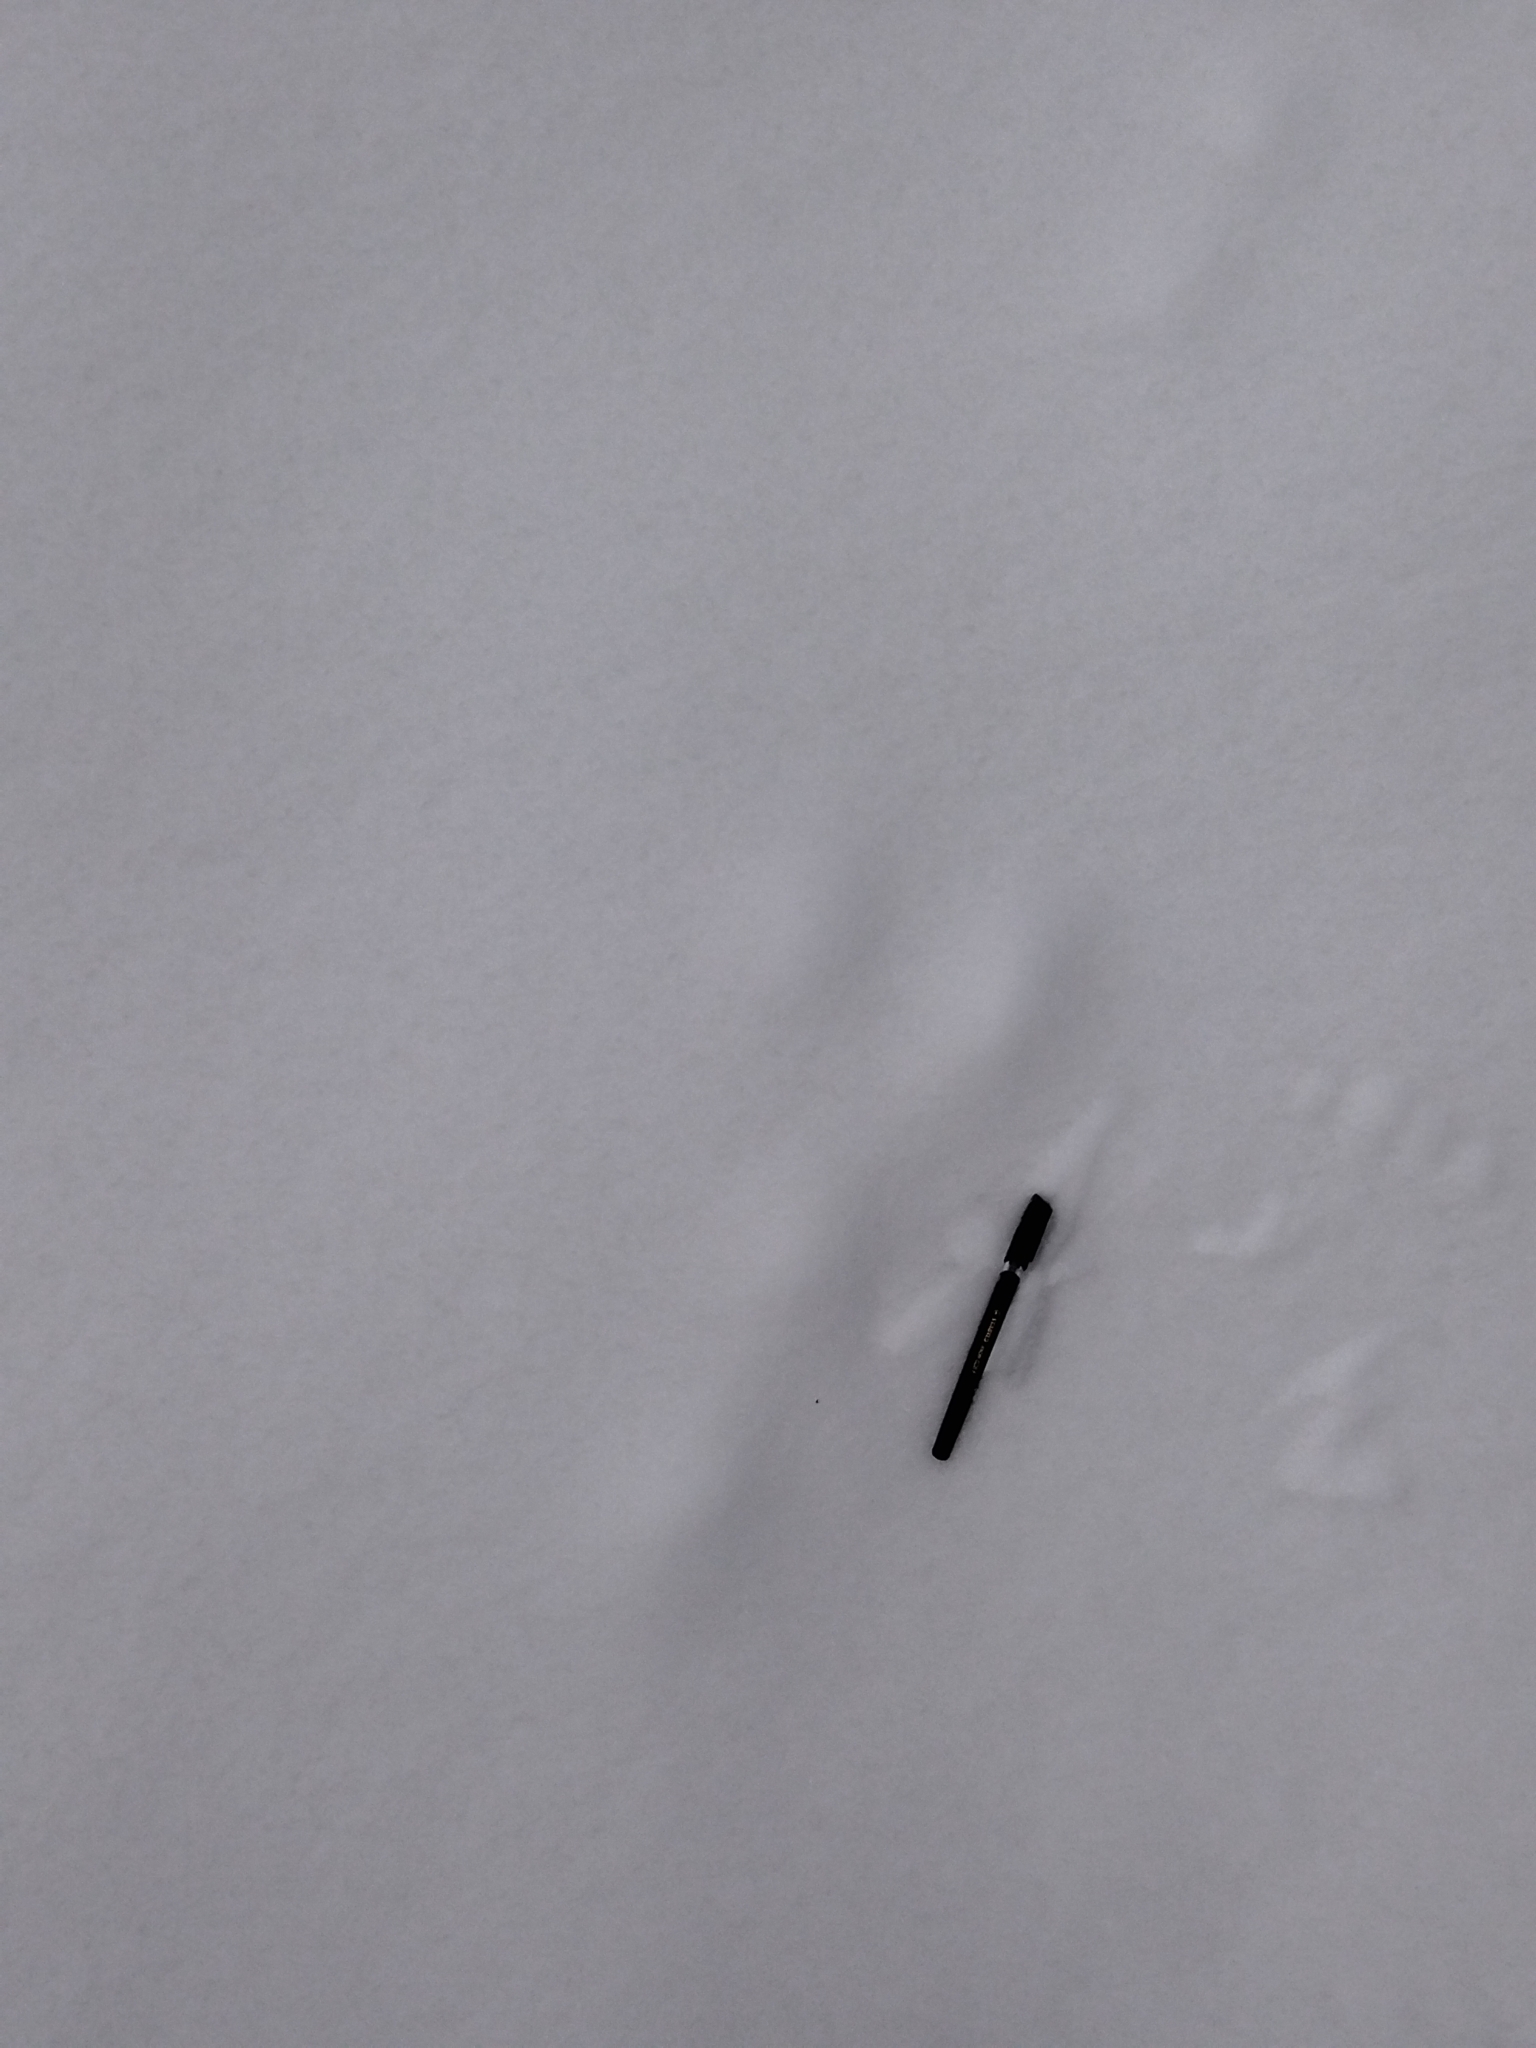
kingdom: Animalia
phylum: Chordata
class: Mammalia
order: Lagomorpha
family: Leporidae
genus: Lepus
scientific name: Lepus timidus
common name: Mountain hare
